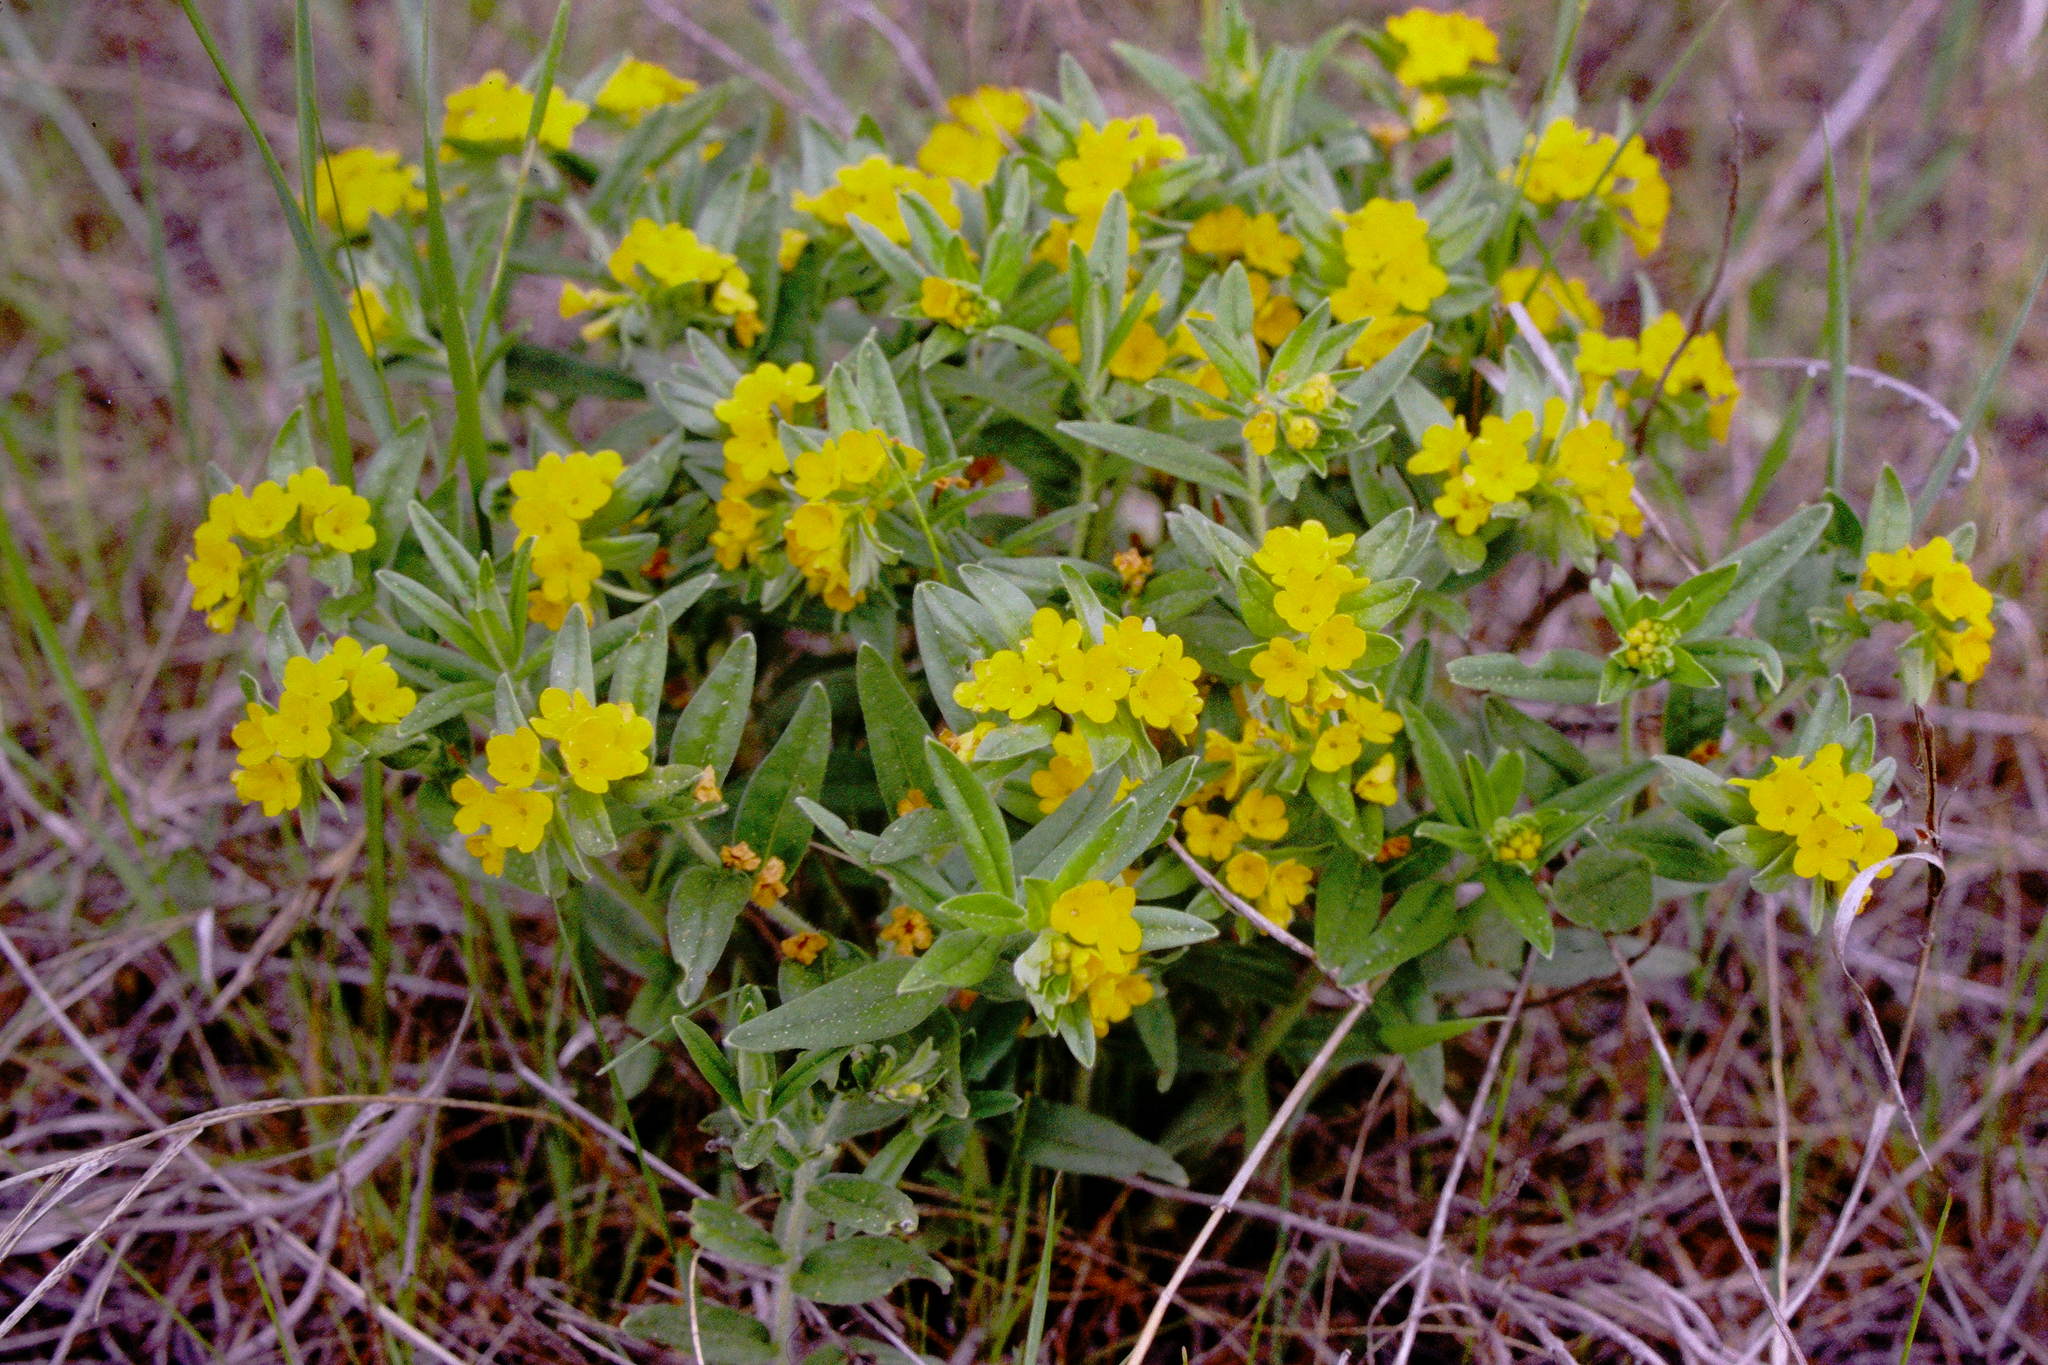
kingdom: Plantae
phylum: Tracheophyta
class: Magnoliopsida
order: Boraginales
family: Boraginaceae
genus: Lithospermum
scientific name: Lithospermum canescens
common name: Hoary puccoon
